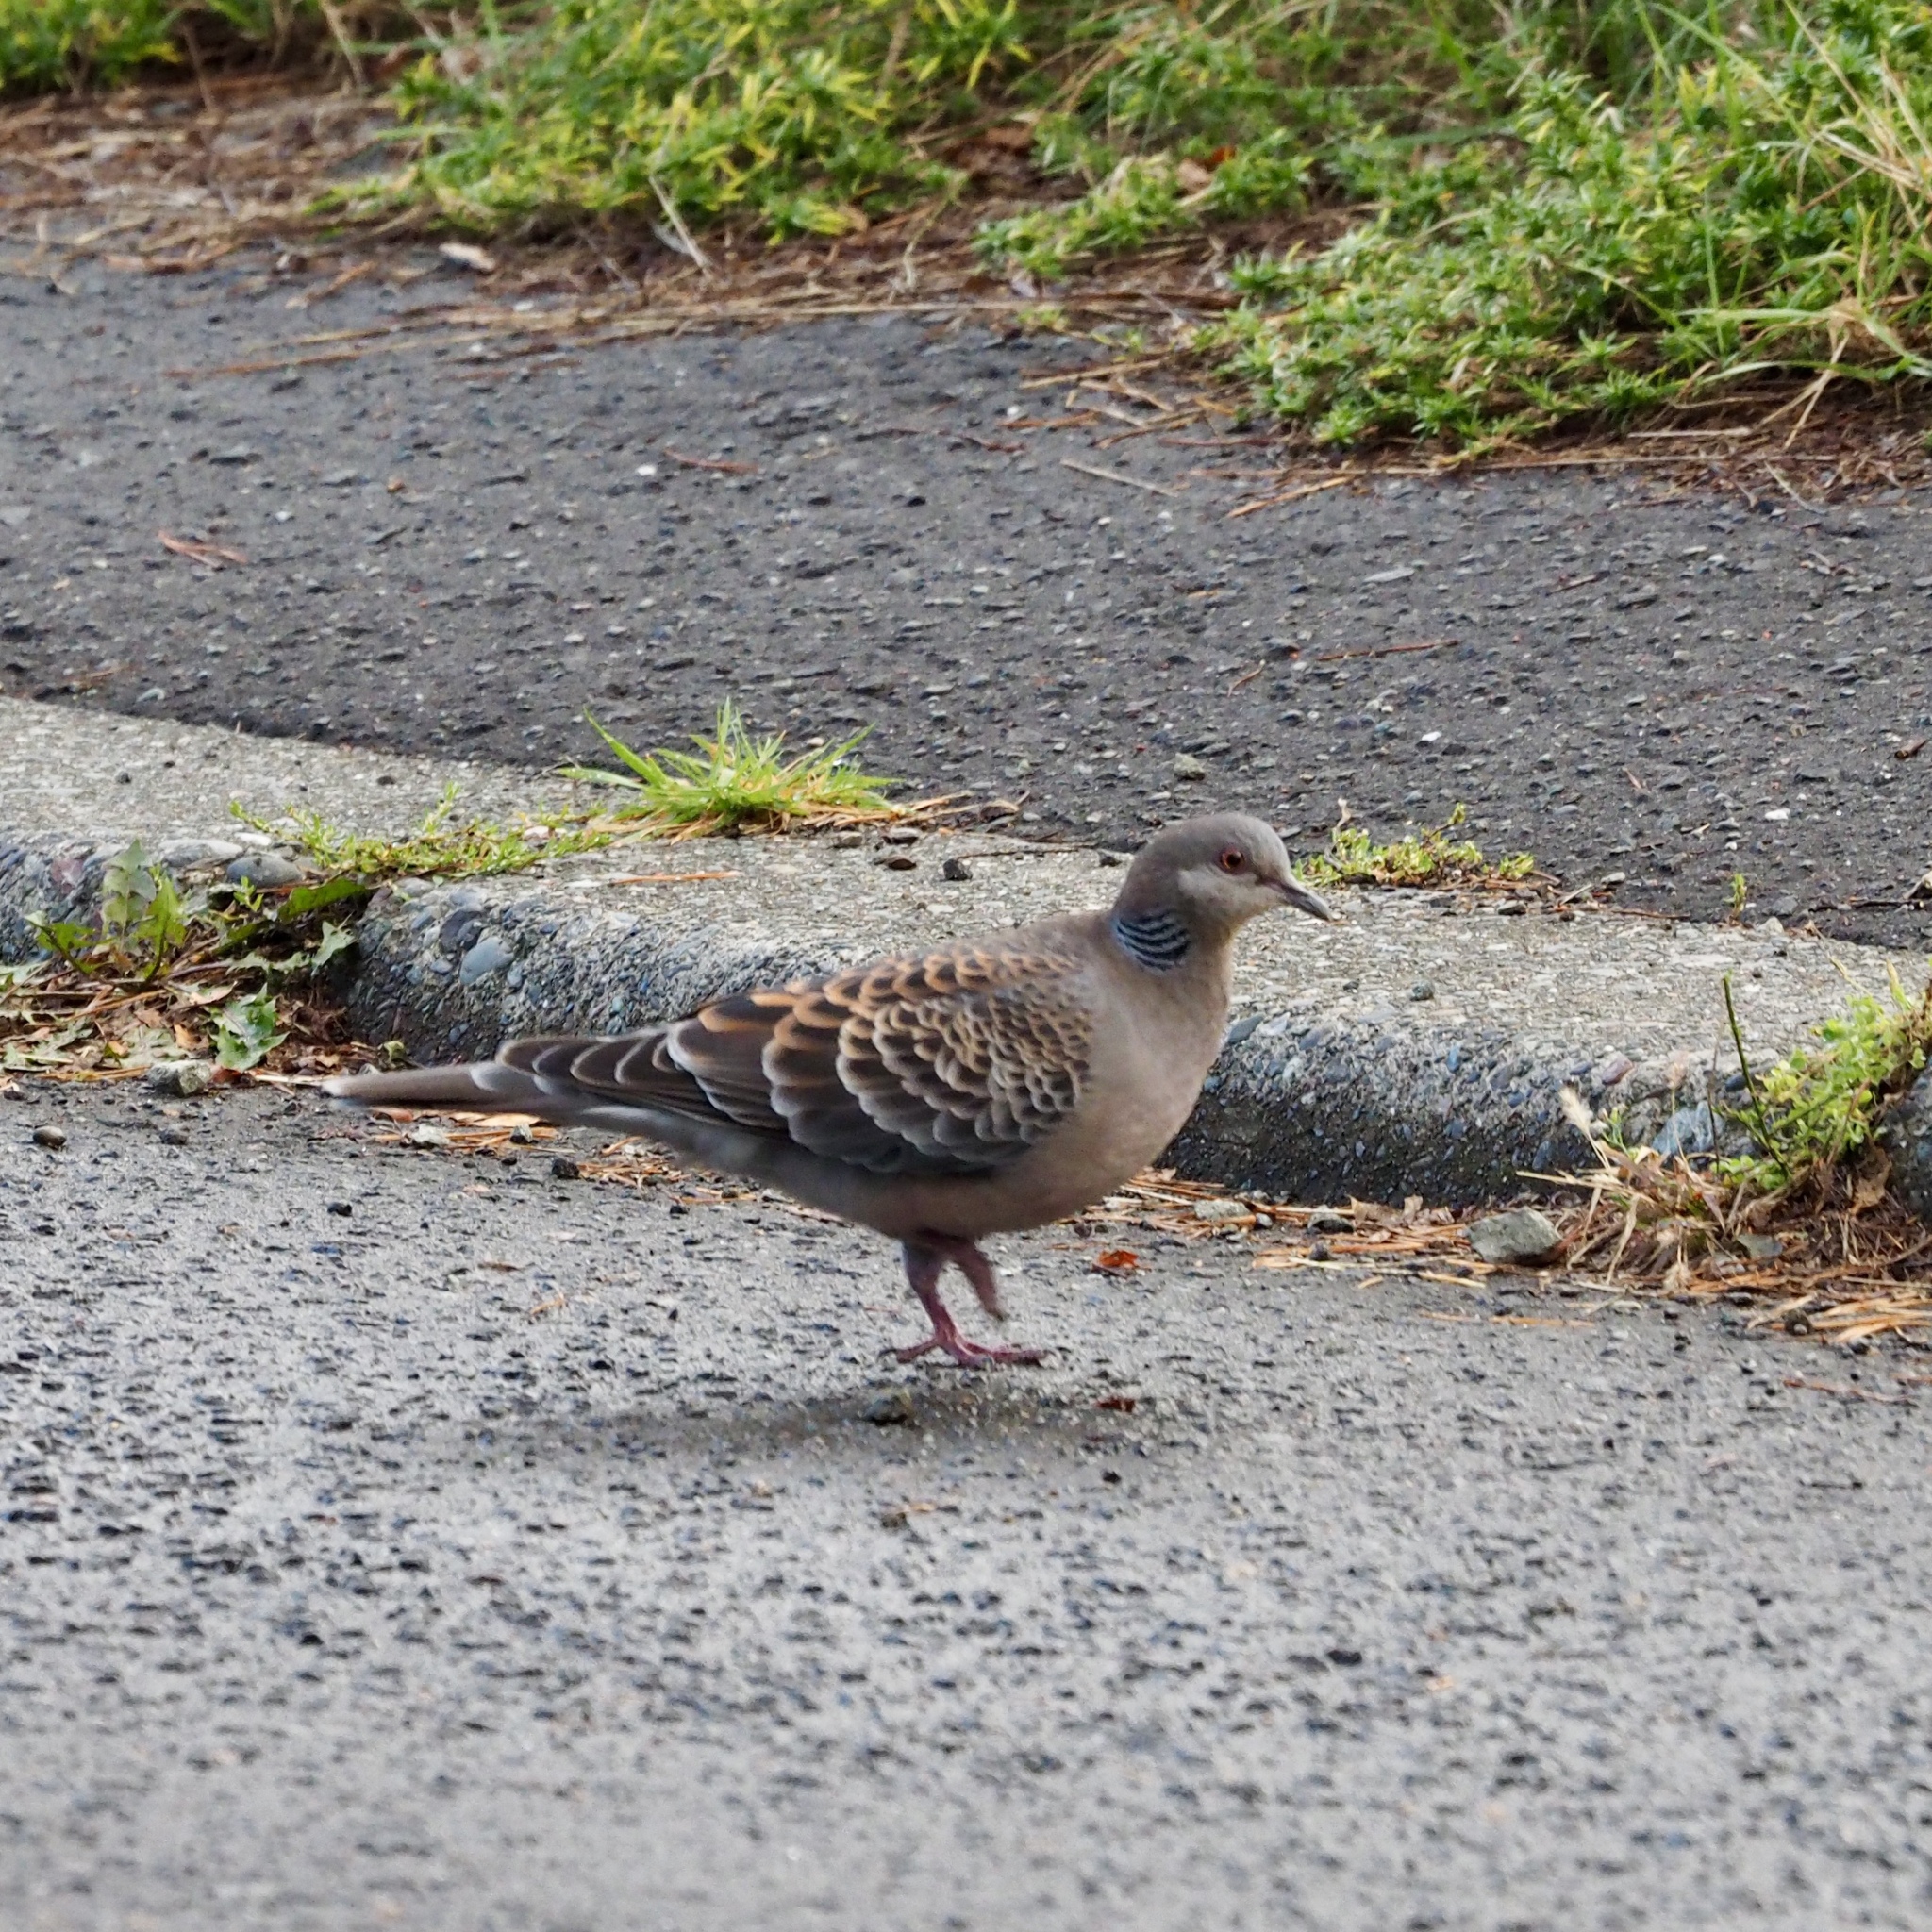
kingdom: Animalia
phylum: Chordata
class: Aves
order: Columbiformes
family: Columbidae
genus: Streptopelia
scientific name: Streptopelia orientalis
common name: Oriental turtle dove
